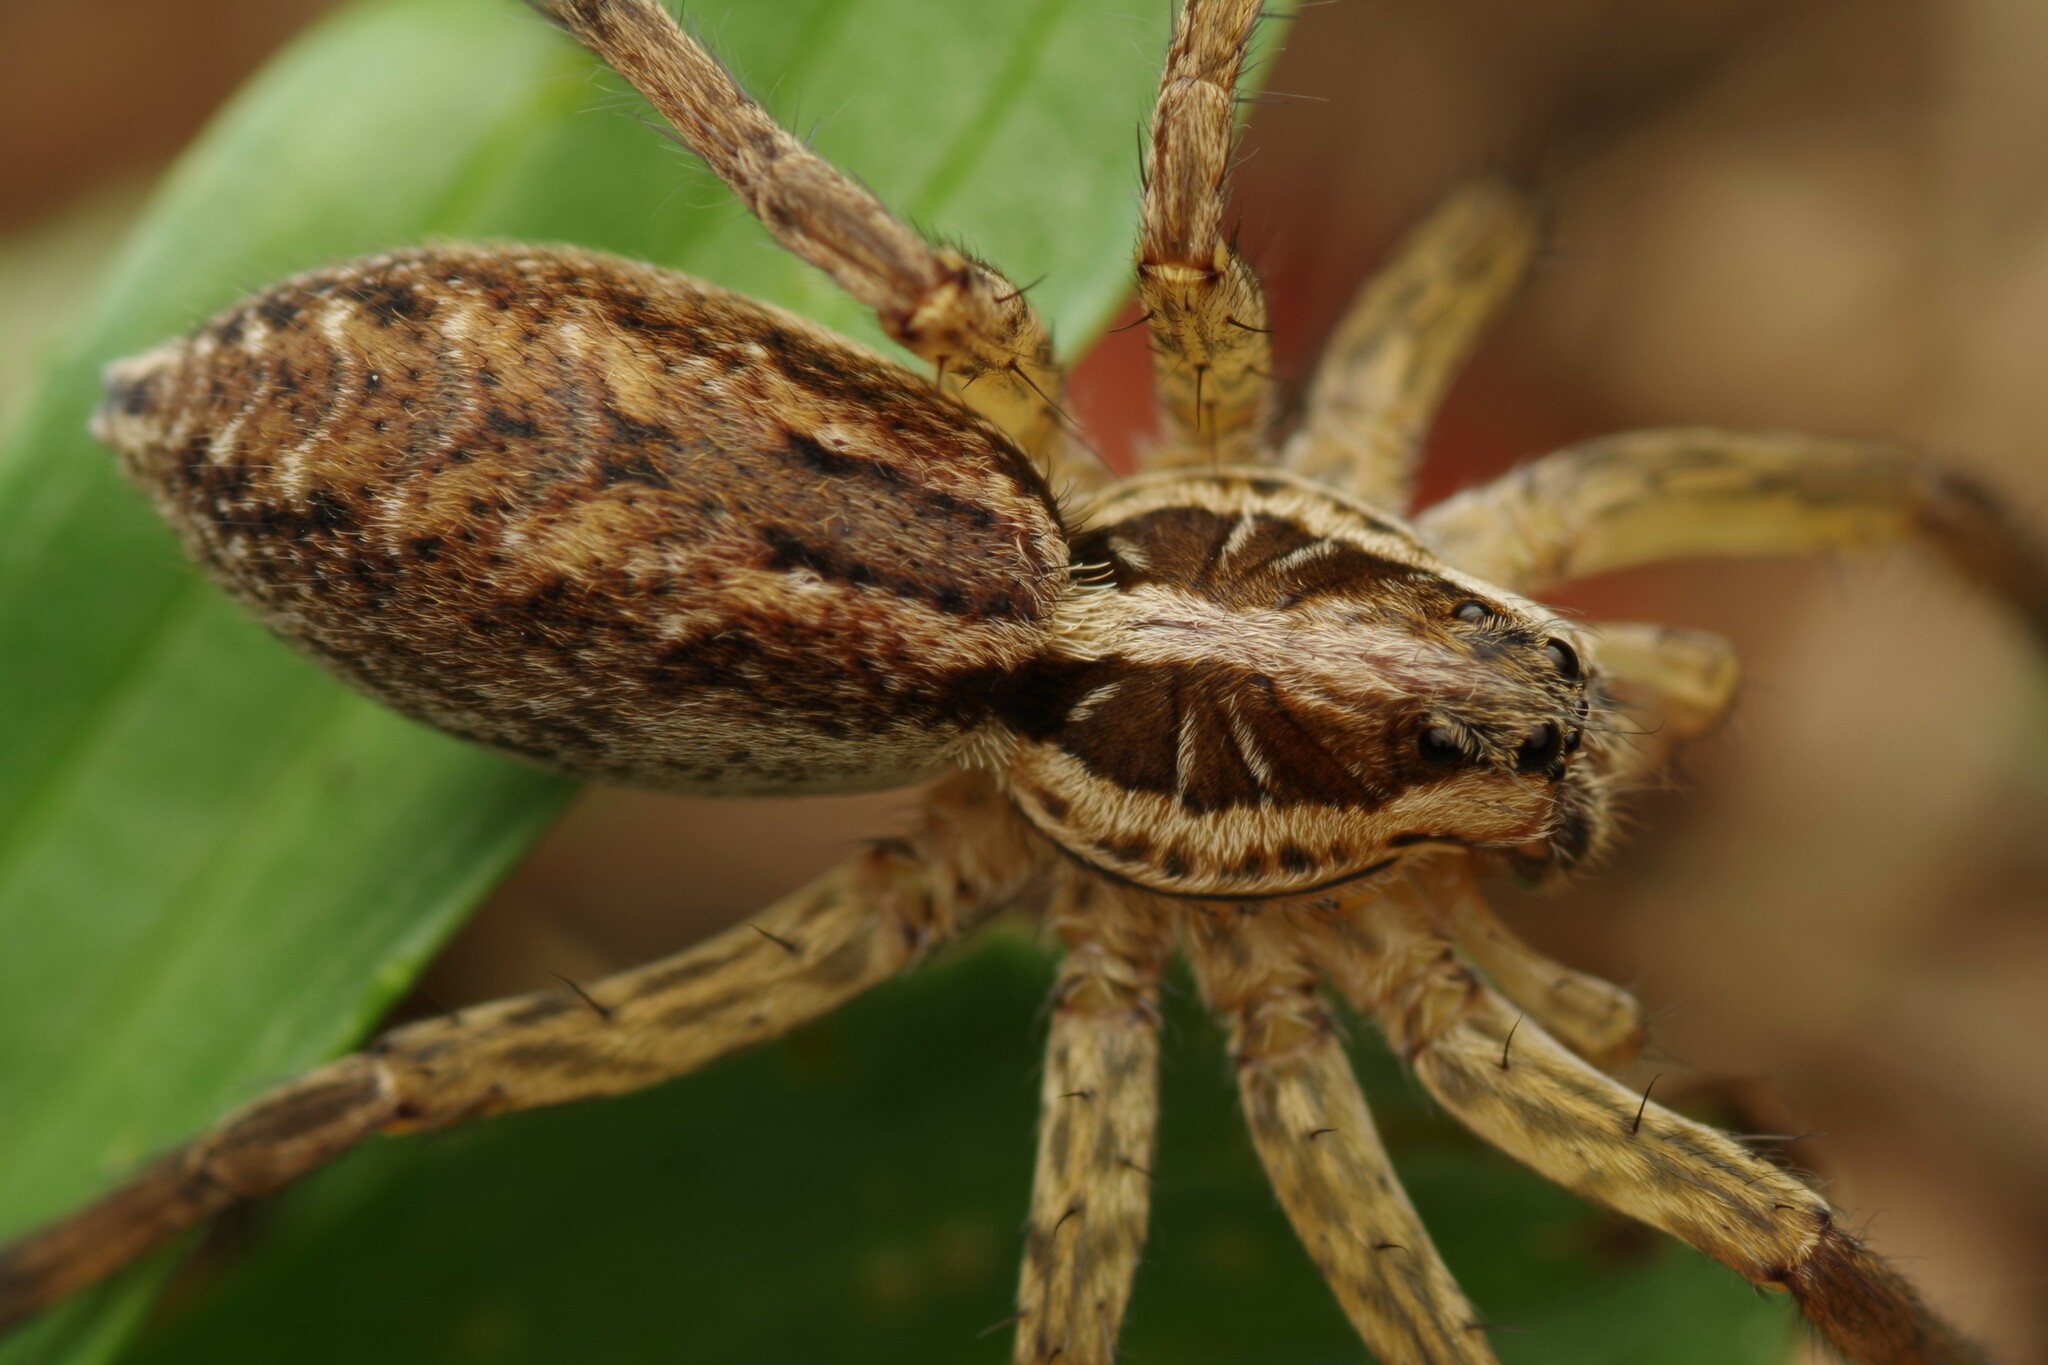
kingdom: Animalia
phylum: Arthropoda
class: Arachnida
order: Araneae
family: Lycosidae
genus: Hogna
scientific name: Hogna radiata
